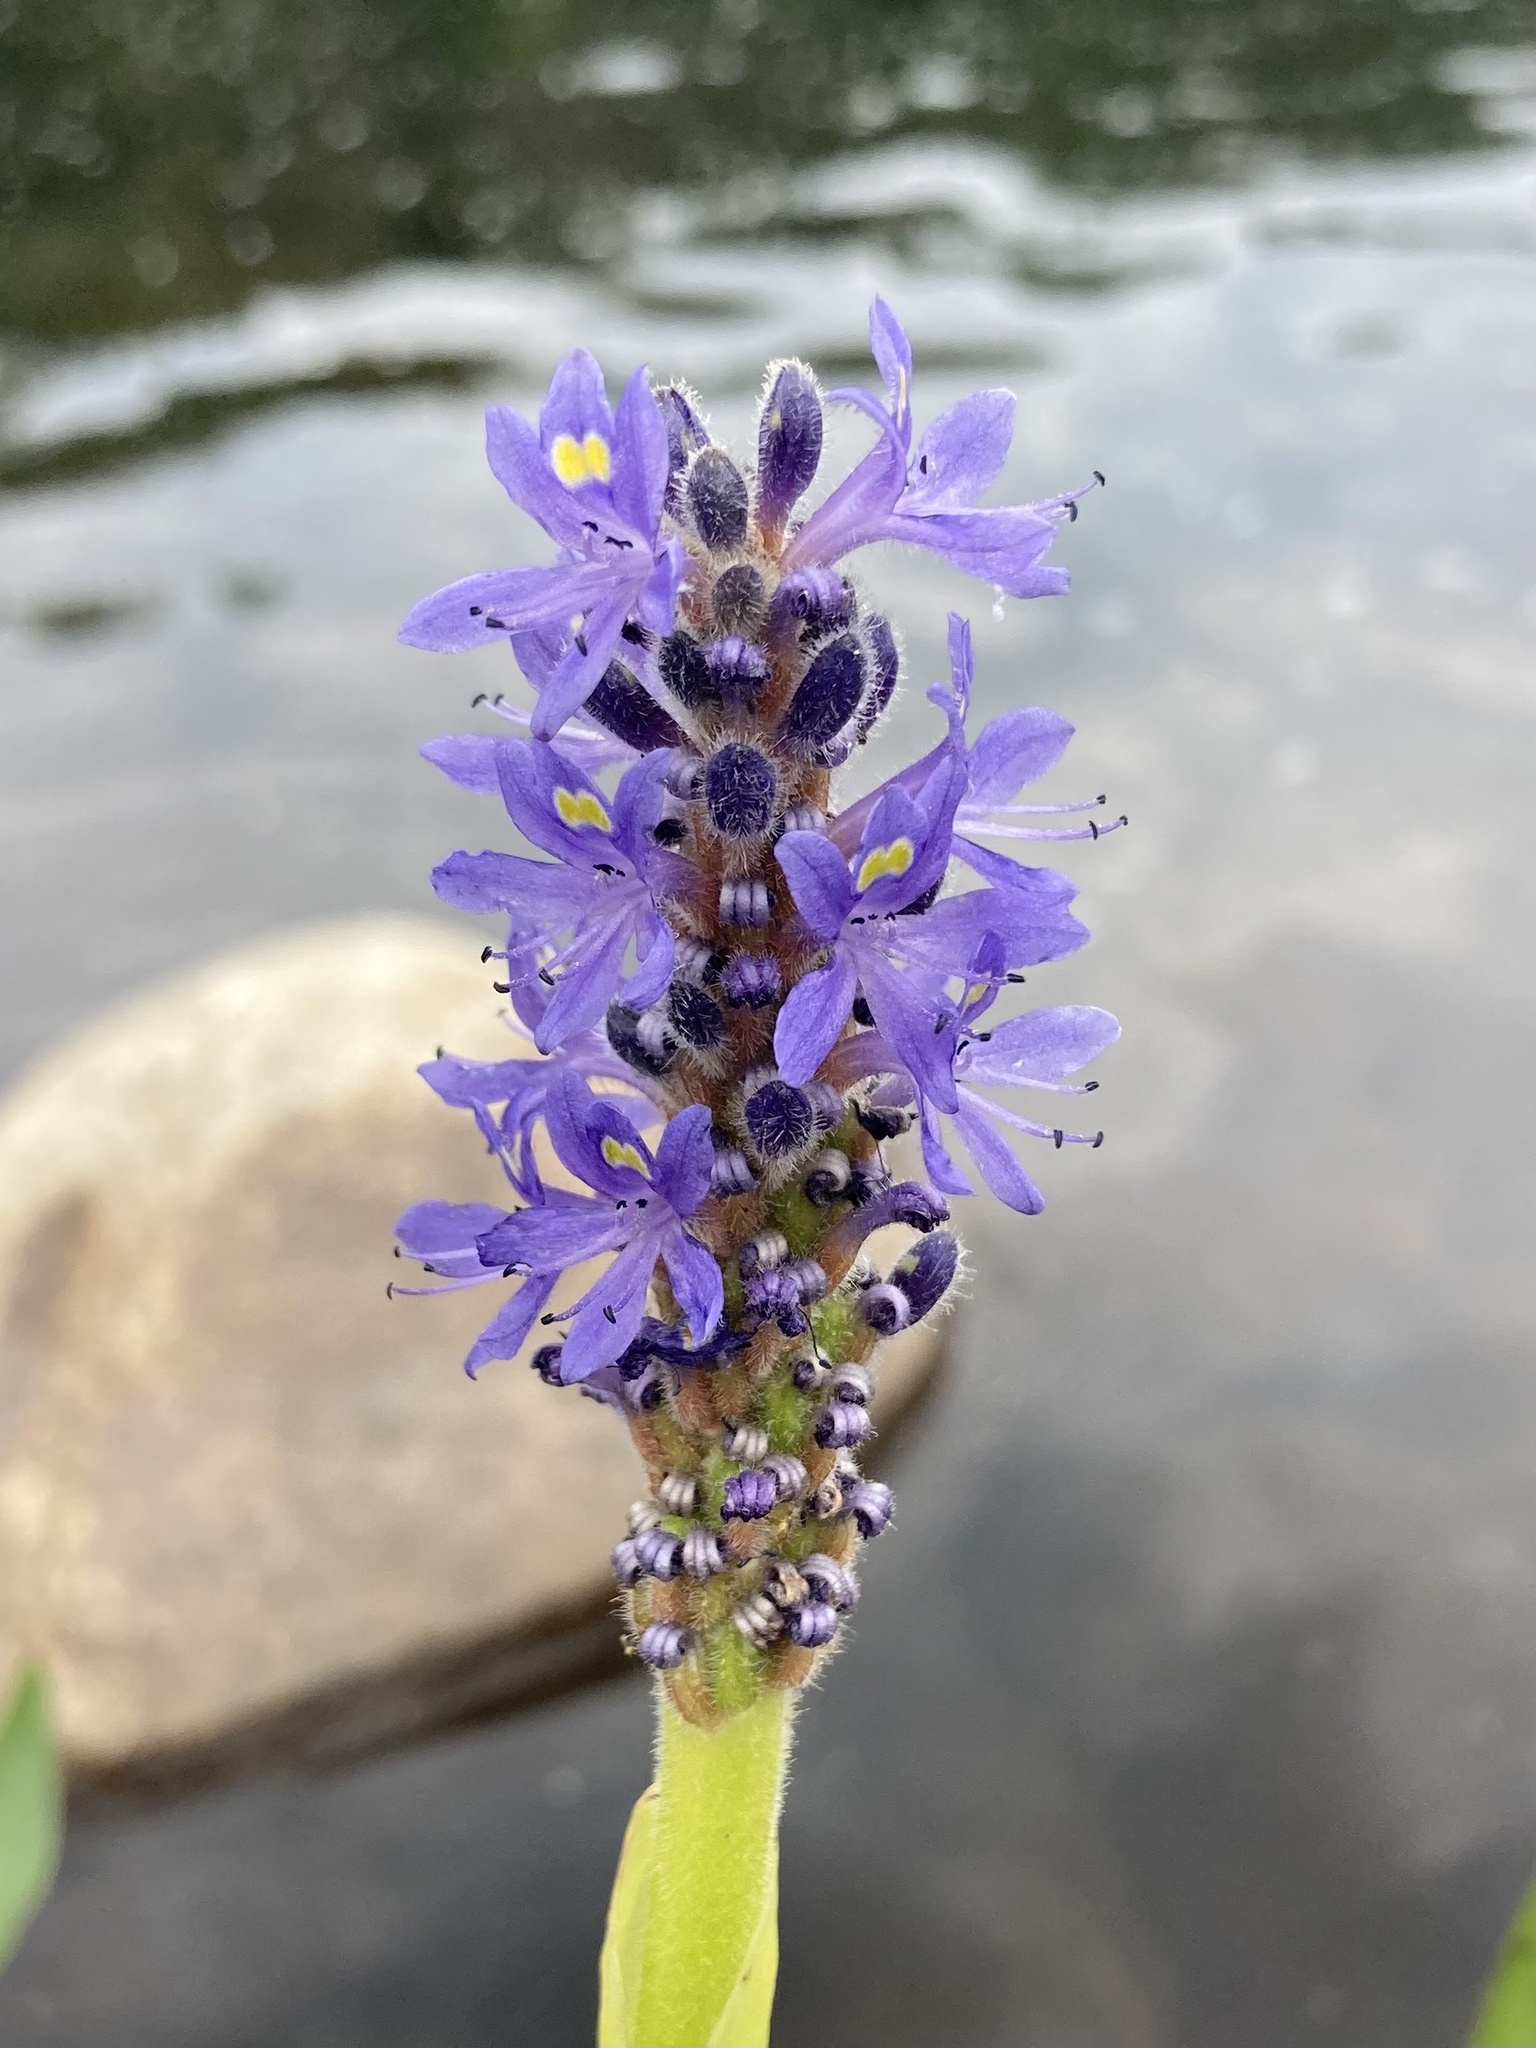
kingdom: Plantae
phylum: Tracheophyta
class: Liliopsida
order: Commelinales
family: Pontederiaceae
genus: Pontederia
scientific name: Pontederia cordata
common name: Pickerelweed
